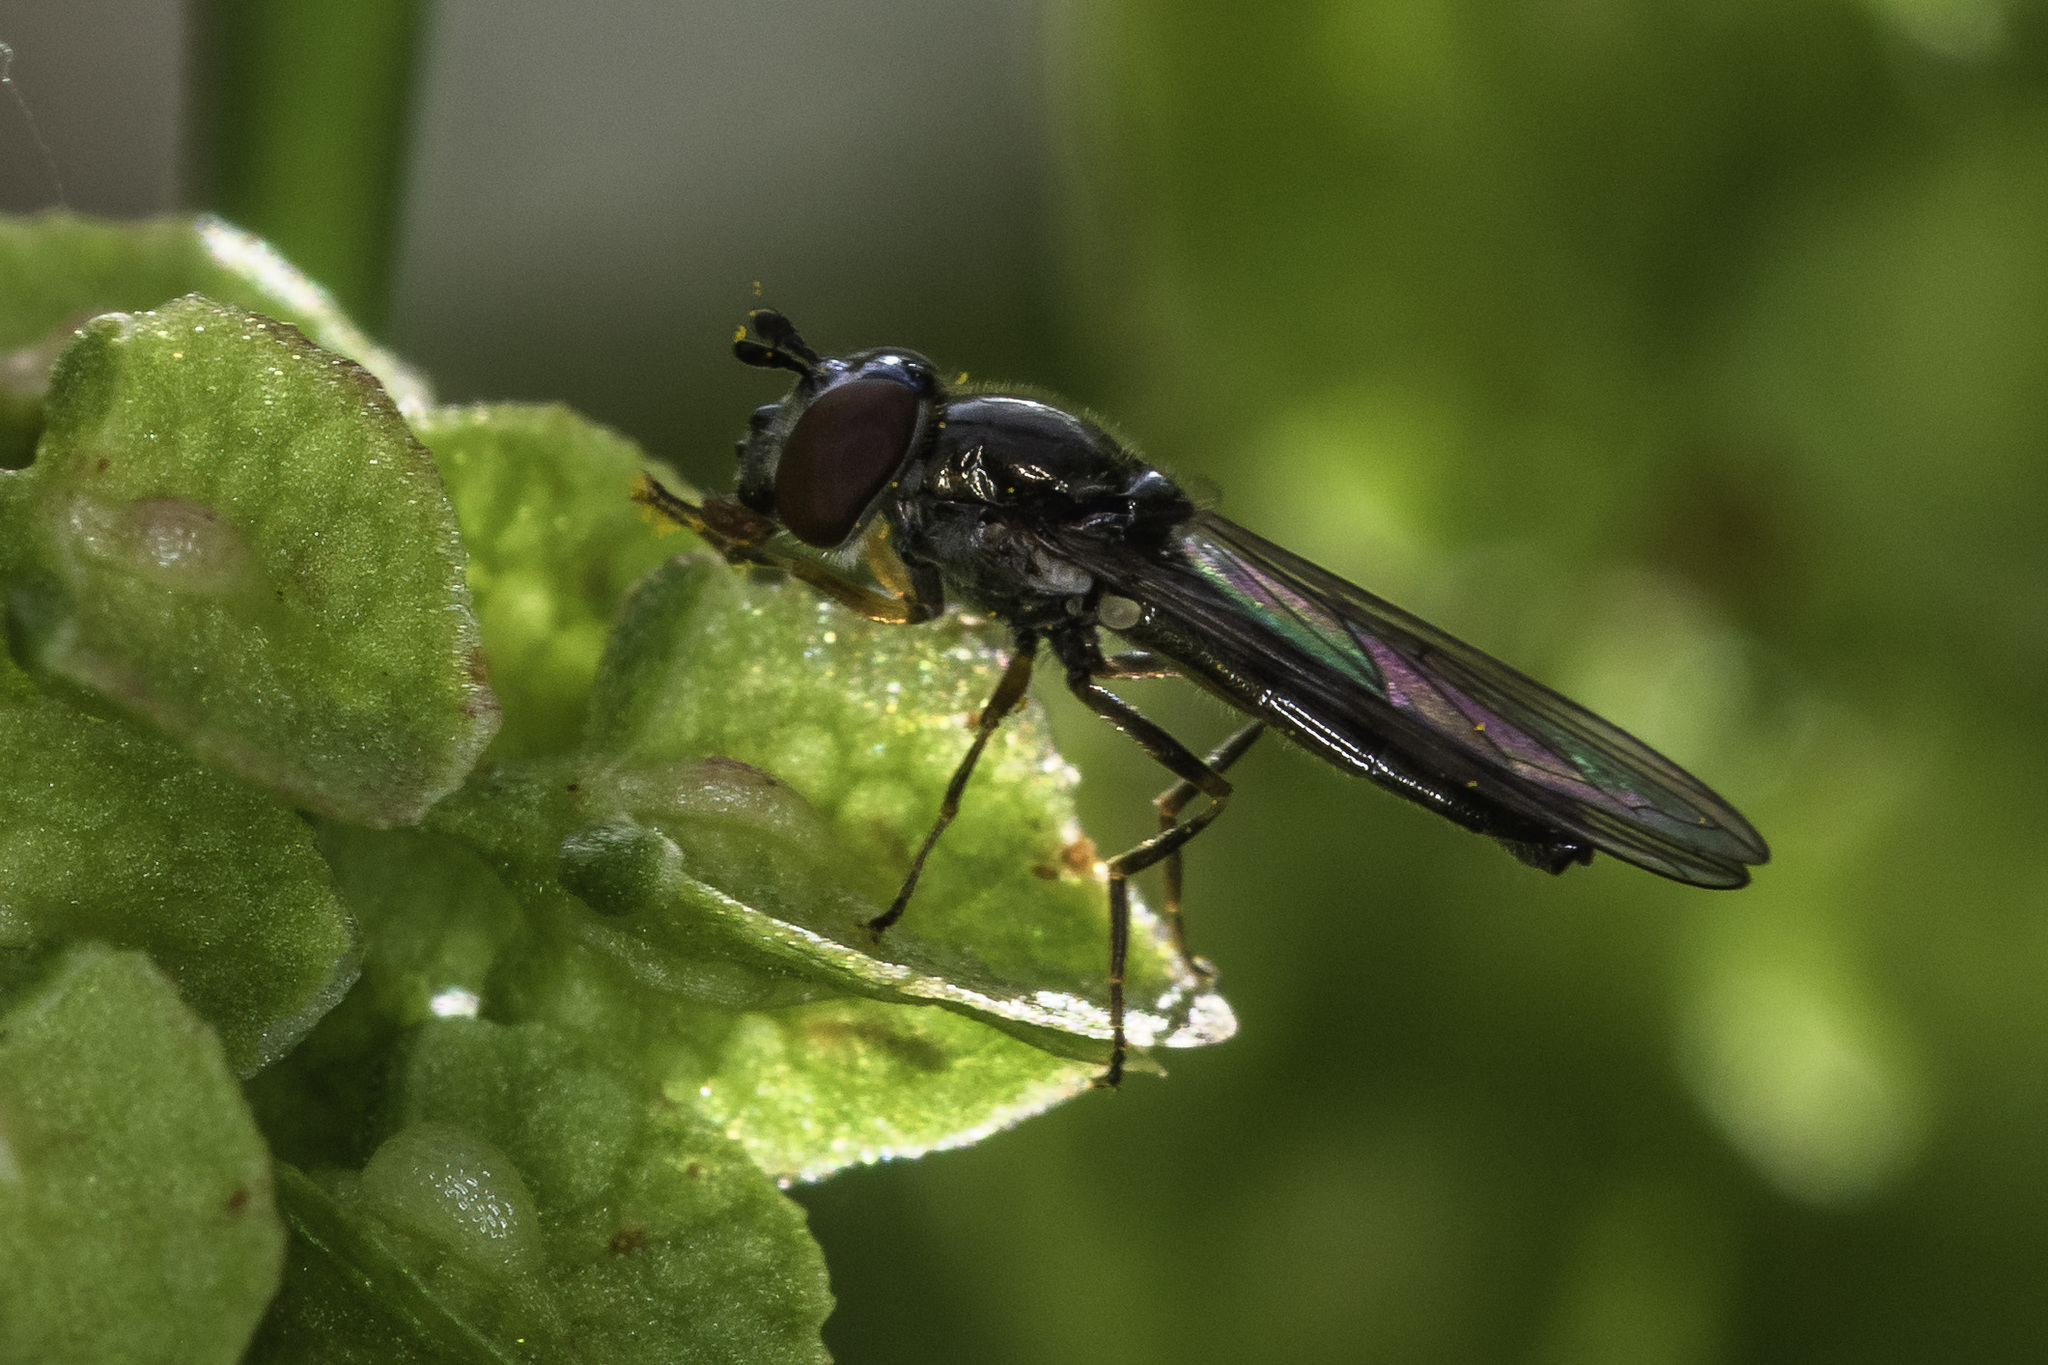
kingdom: Animalia
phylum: Arthropoda
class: Insecta
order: Diptera
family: Syrphidae
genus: Platycheirus
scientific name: Platycheirus albimanus
